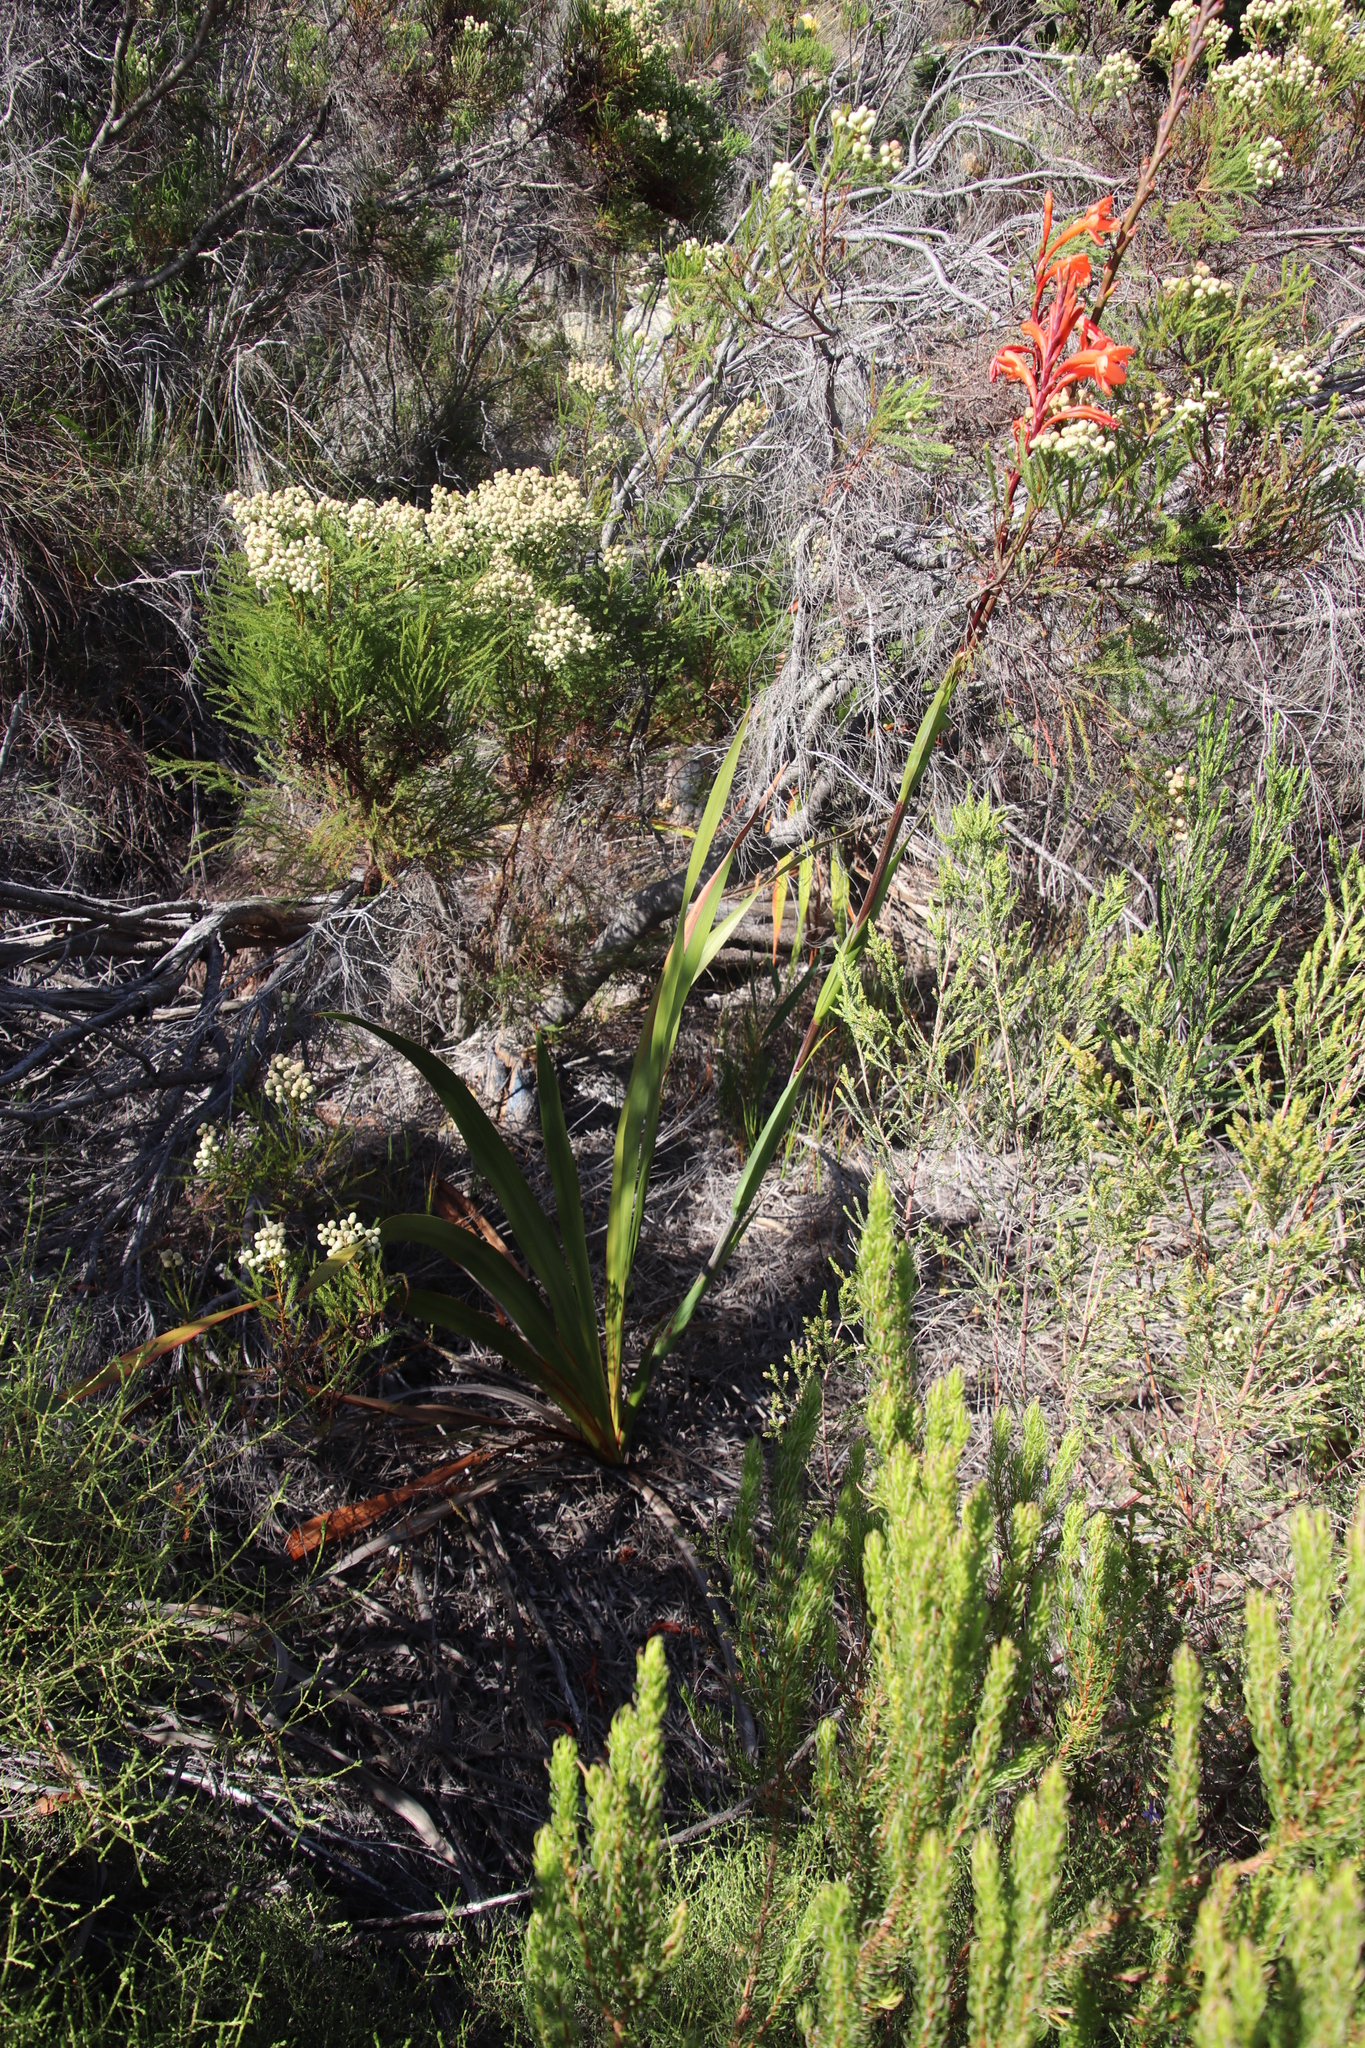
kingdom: Plantae
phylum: Tracheophyta
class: Liliopsida
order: Asparagales
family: Iridaceae
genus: Watsonia
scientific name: Watsonia tabularis
